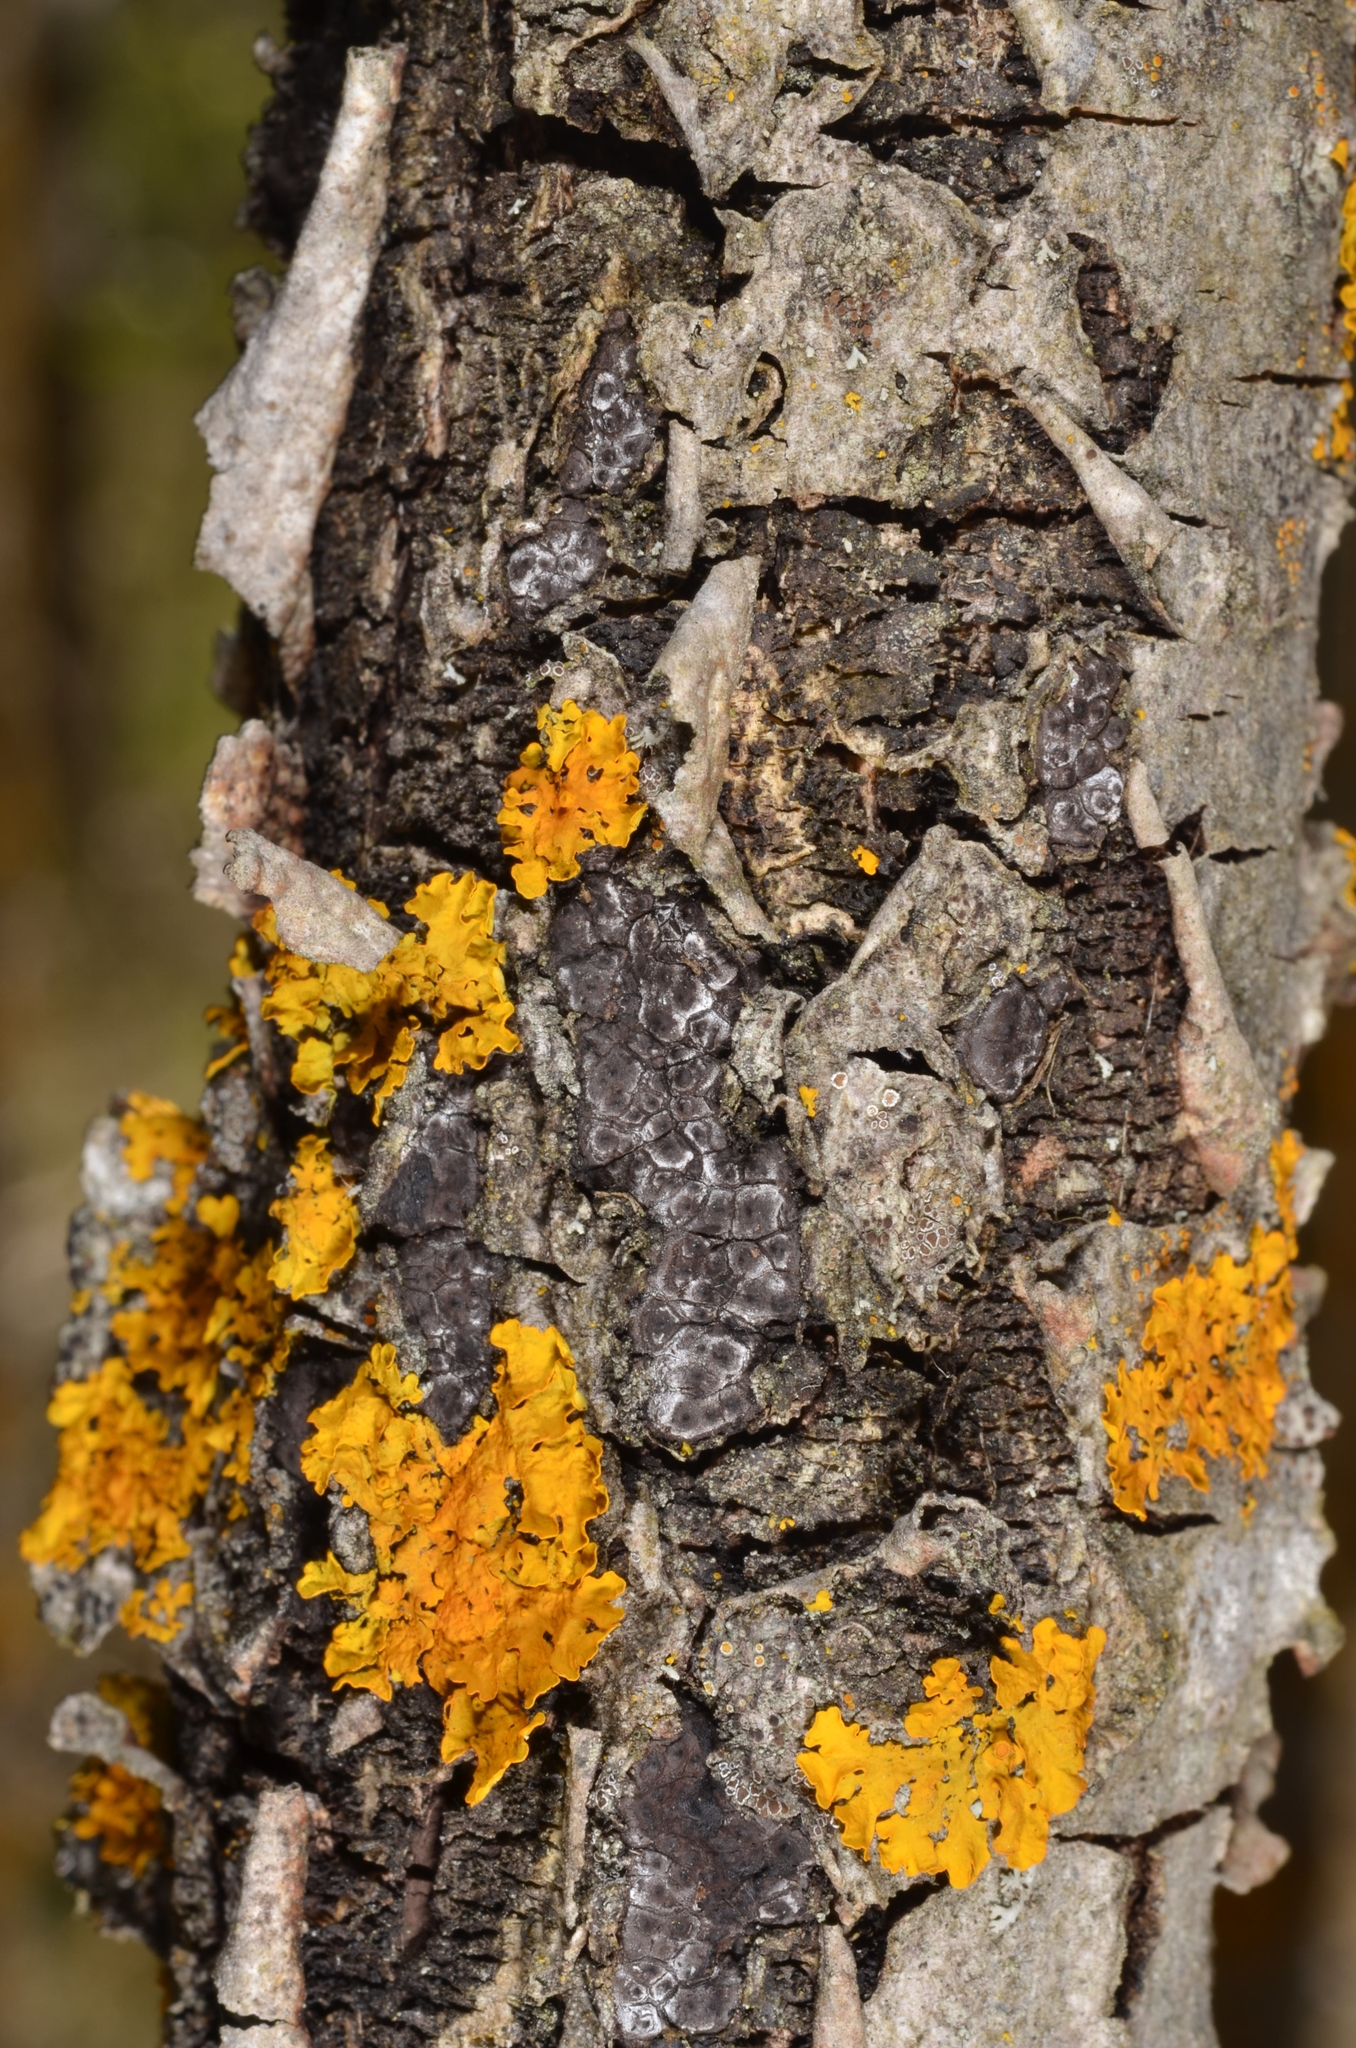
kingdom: Fungi
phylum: Ascomycota
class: Sordariomycetes
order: Xylariales
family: Xylariaceae
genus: Entoleuca
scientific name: Entoleuca mammata
